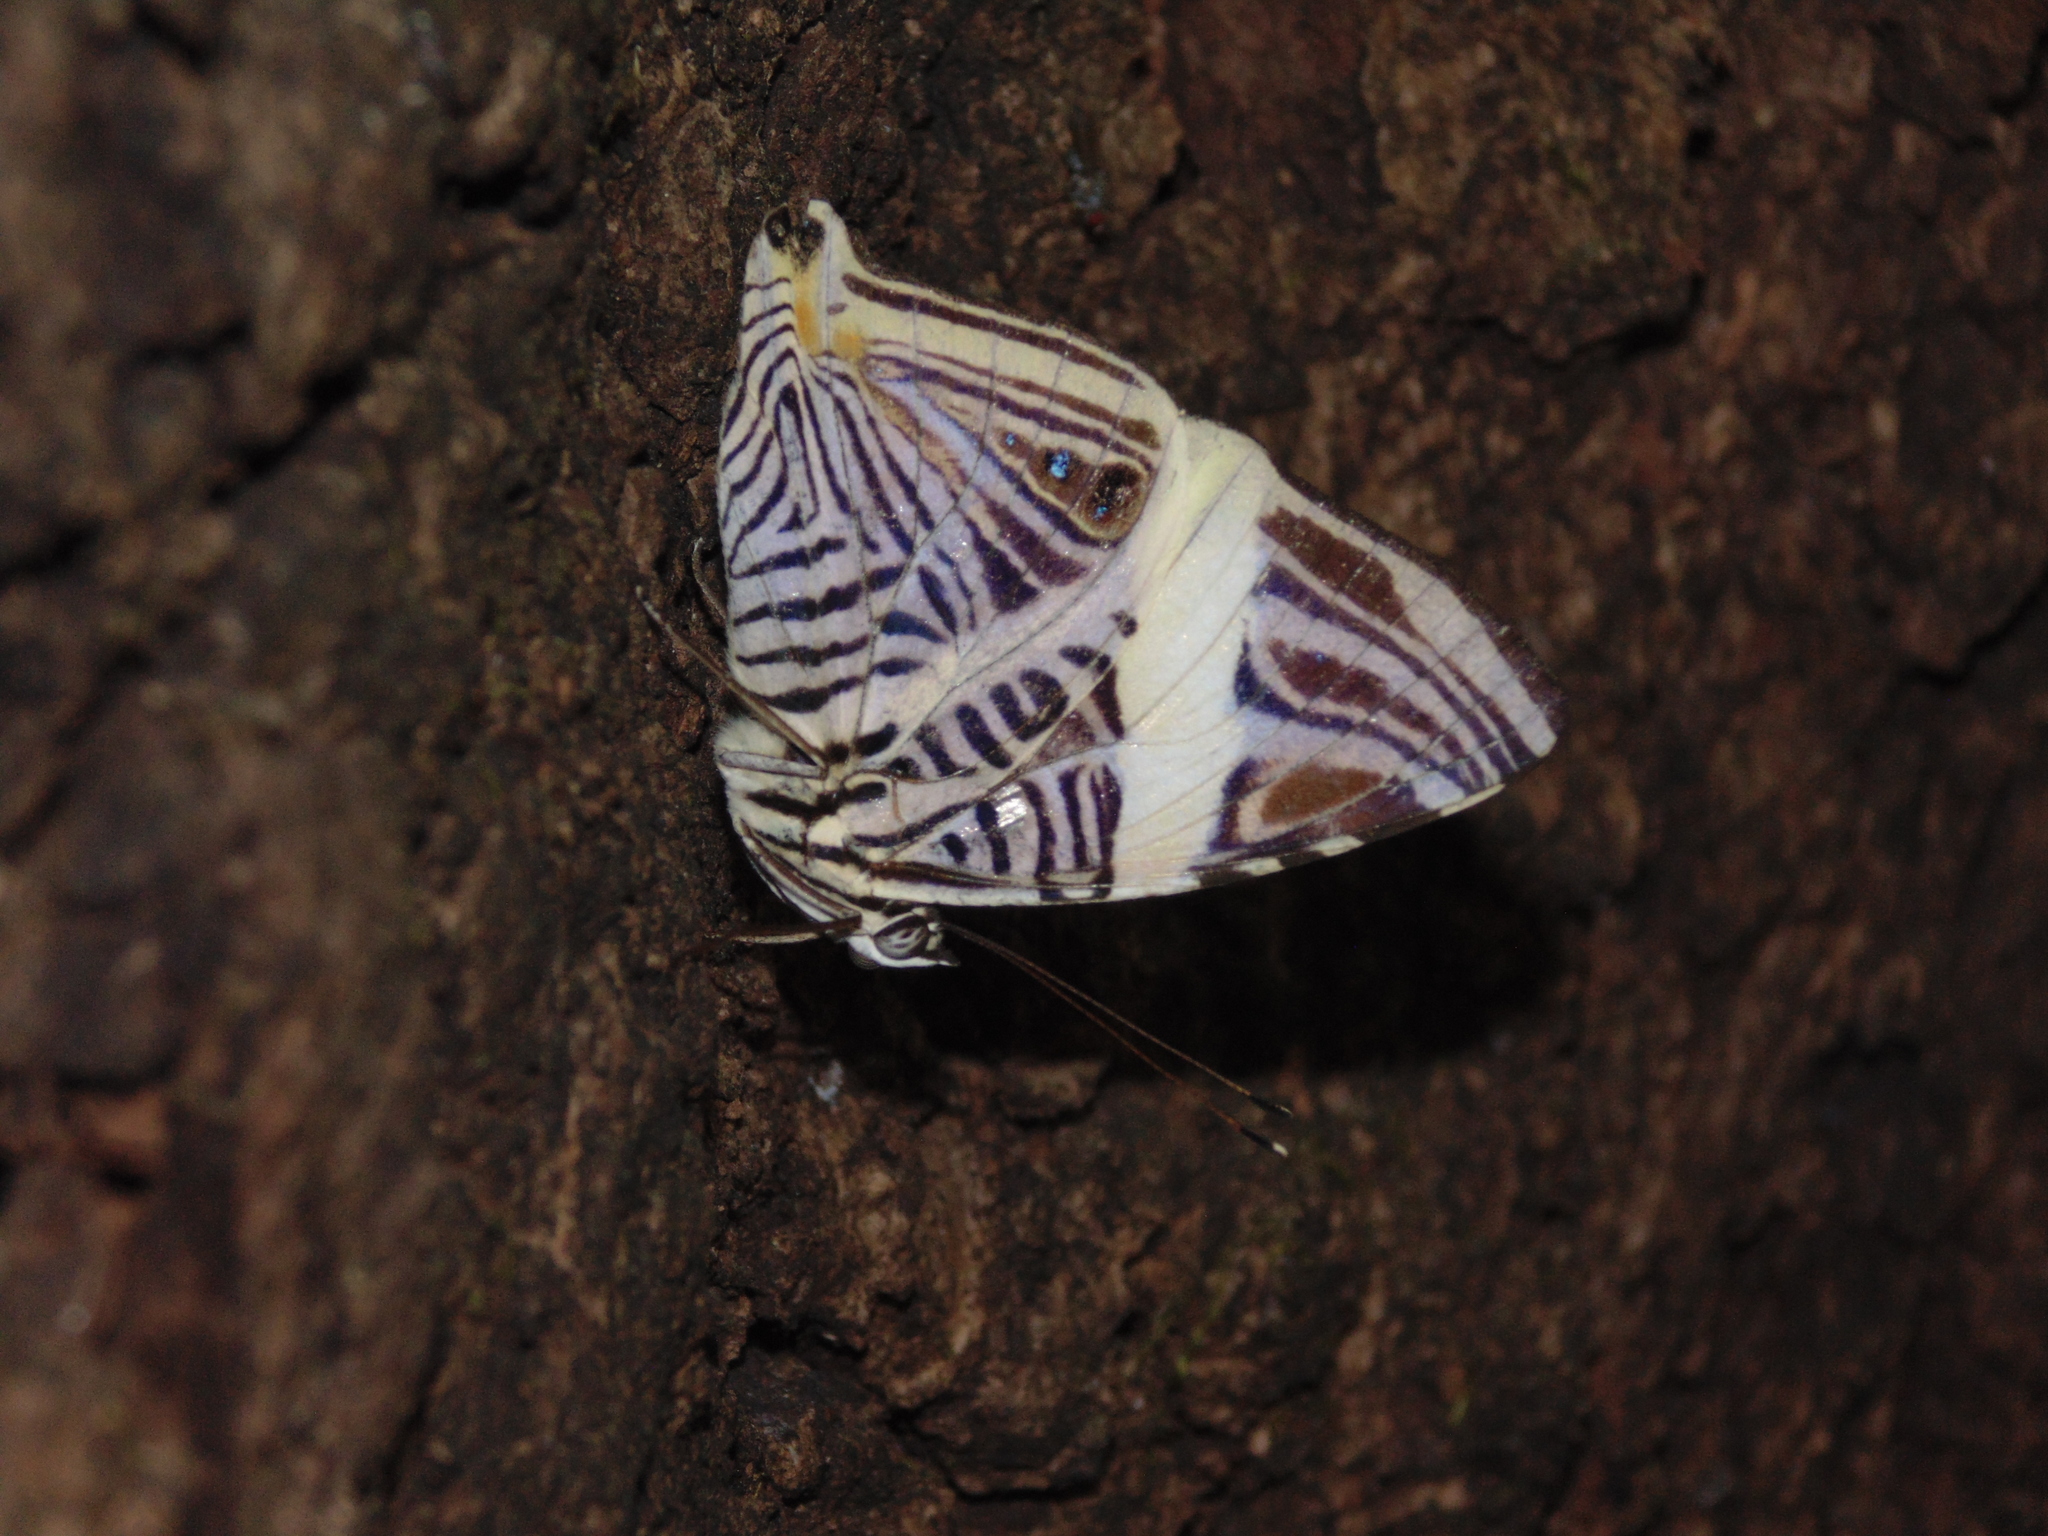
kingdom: Animalia
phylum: Arthropoda
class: Insecta
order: Lepidoptera
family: Nymphalidae
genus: Colobura
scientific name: Colobura dirce
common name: Dirce beauty
